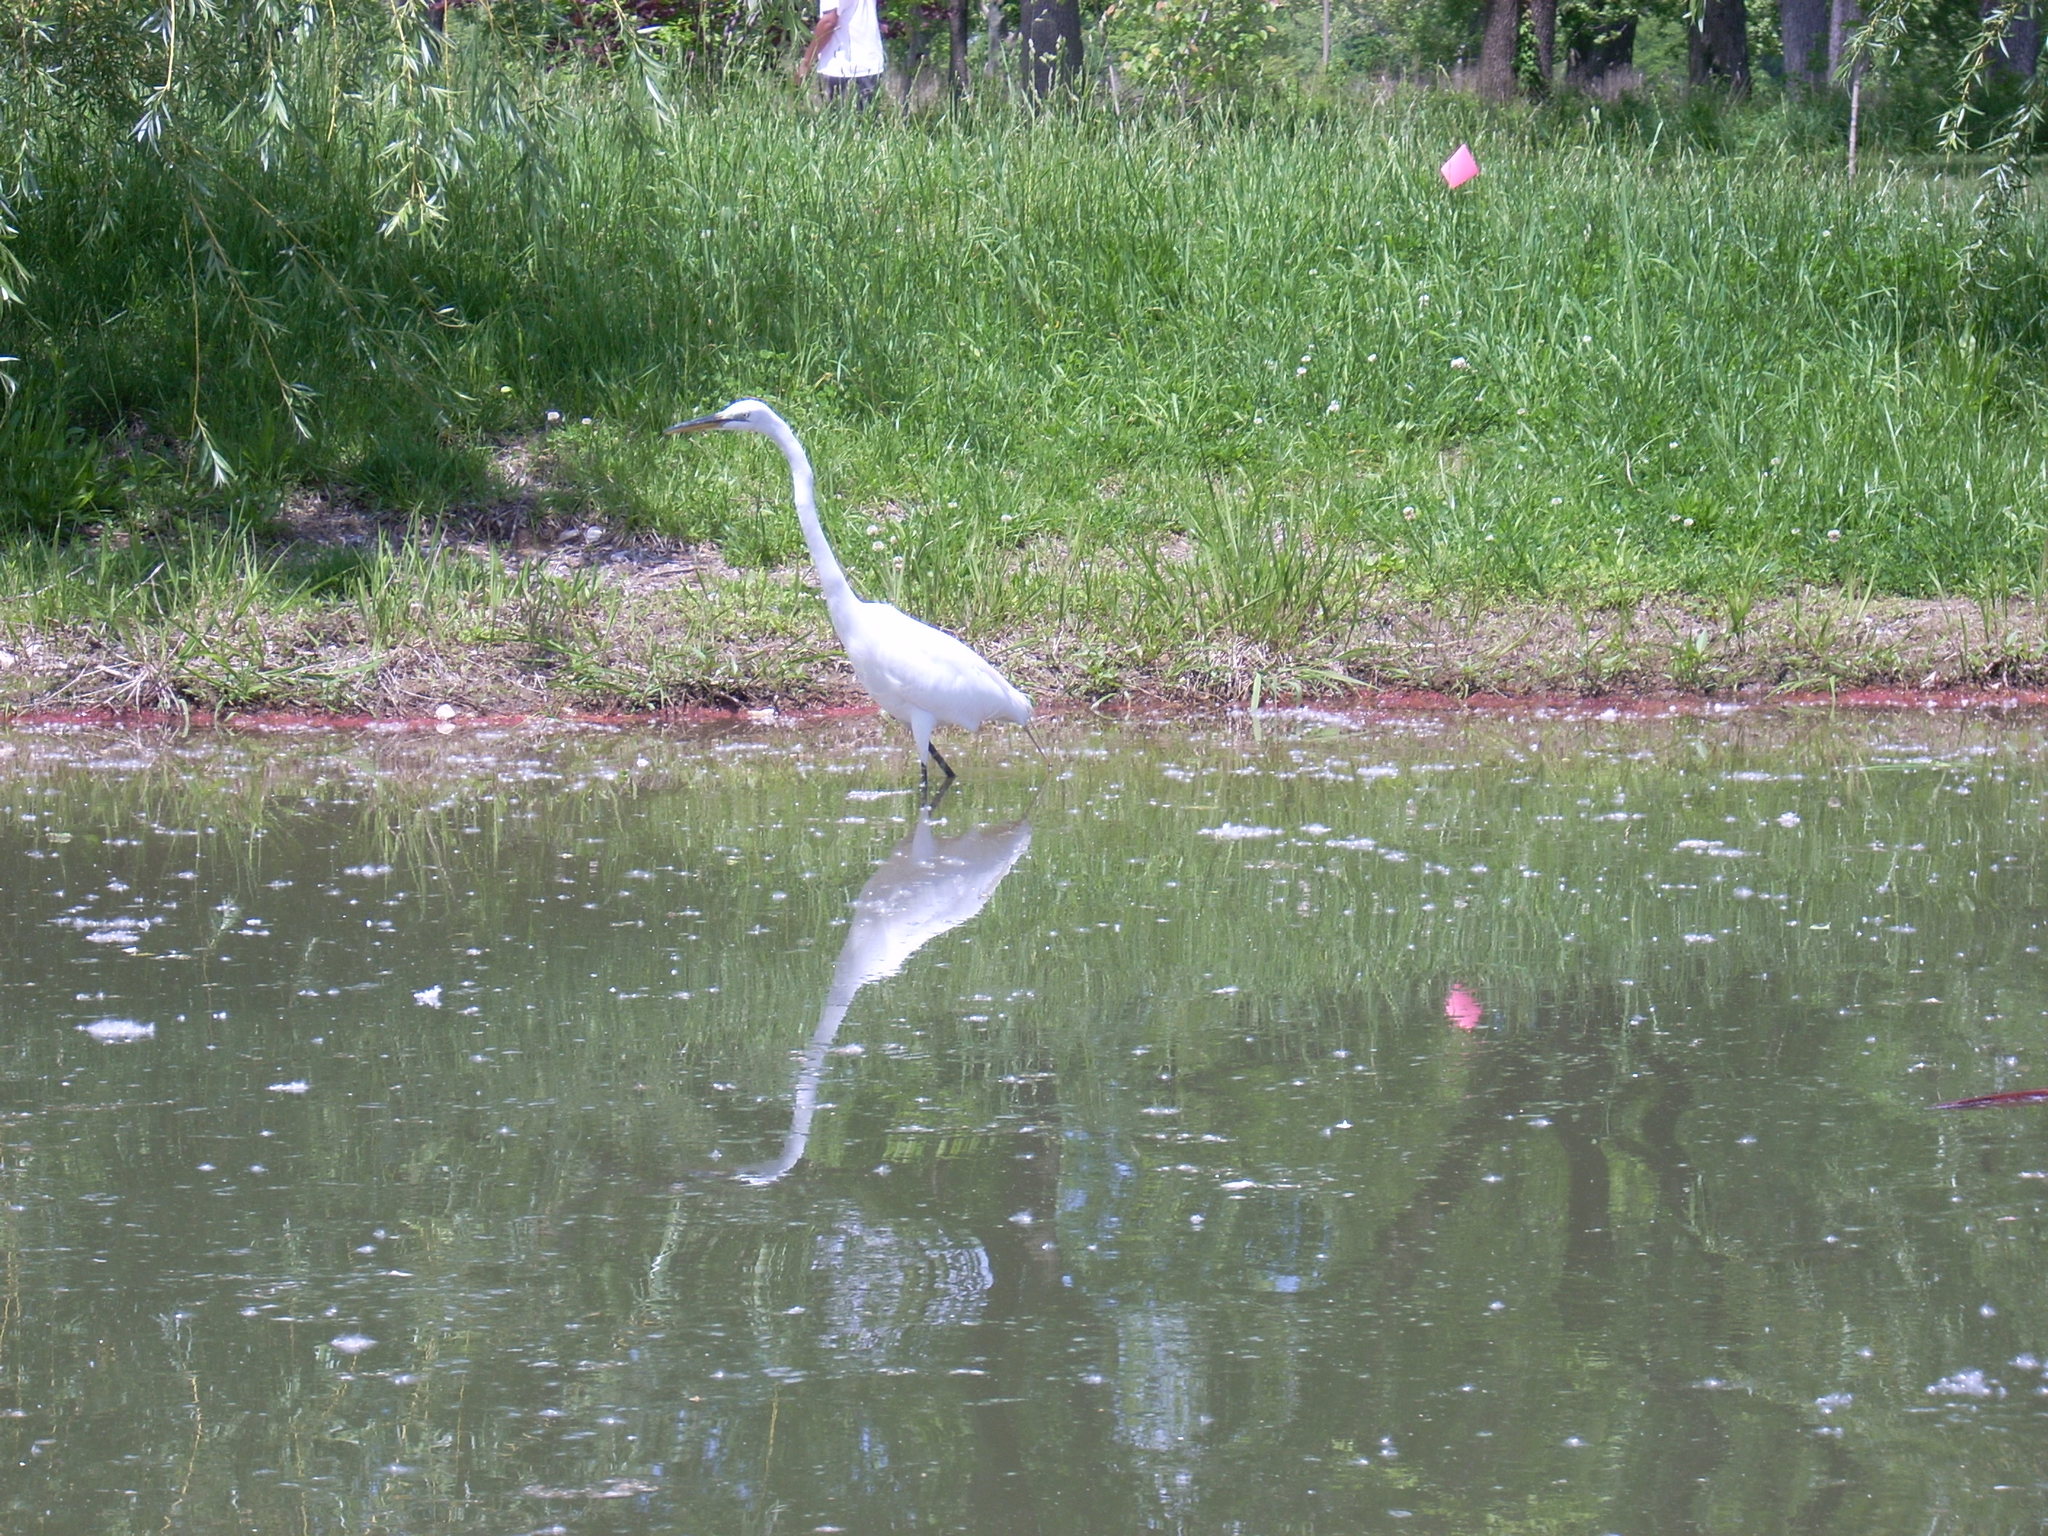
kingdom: Animalia
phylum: Chordata
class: Aves
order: Pelecaniformes
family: Ardeidae
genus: Ardea
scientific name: Ardea alba
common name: Great egret
